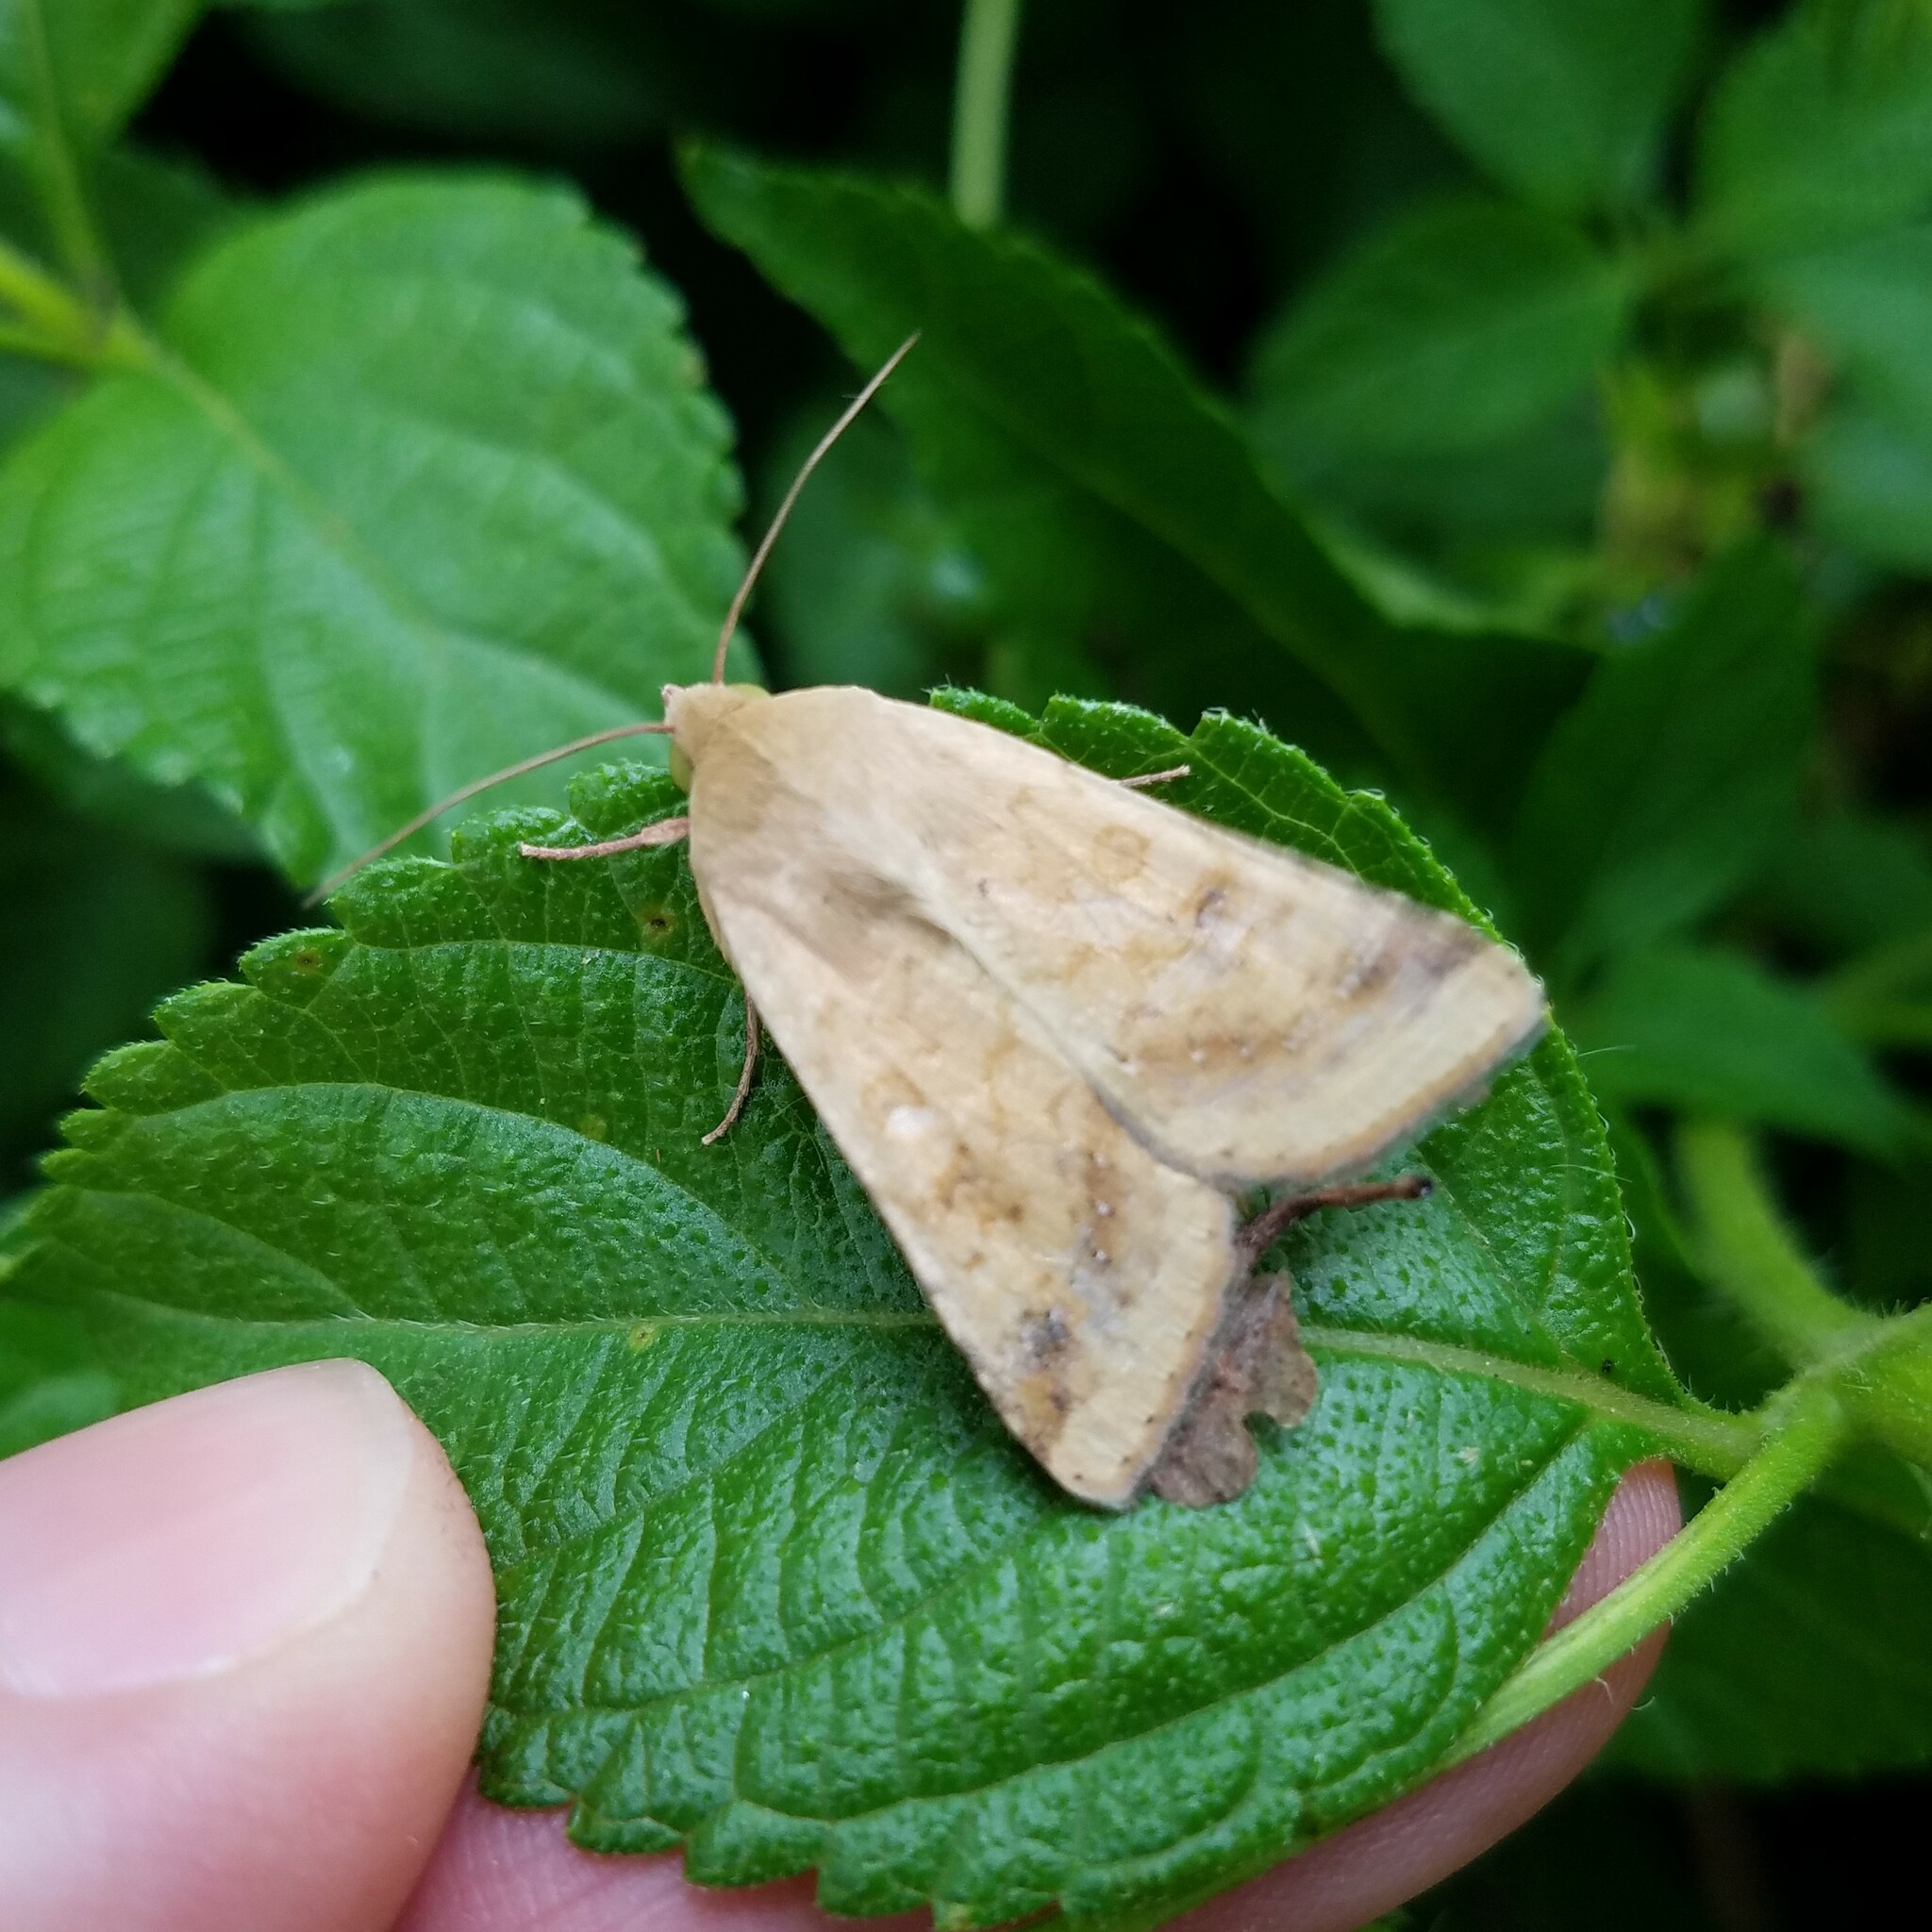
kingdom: Animalia
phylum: Arthropoda
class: Insecta
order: Lepidoptera
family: Noctuidae
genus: Helicoverpa
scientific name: Helicoverpa zea
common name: Bollworm
